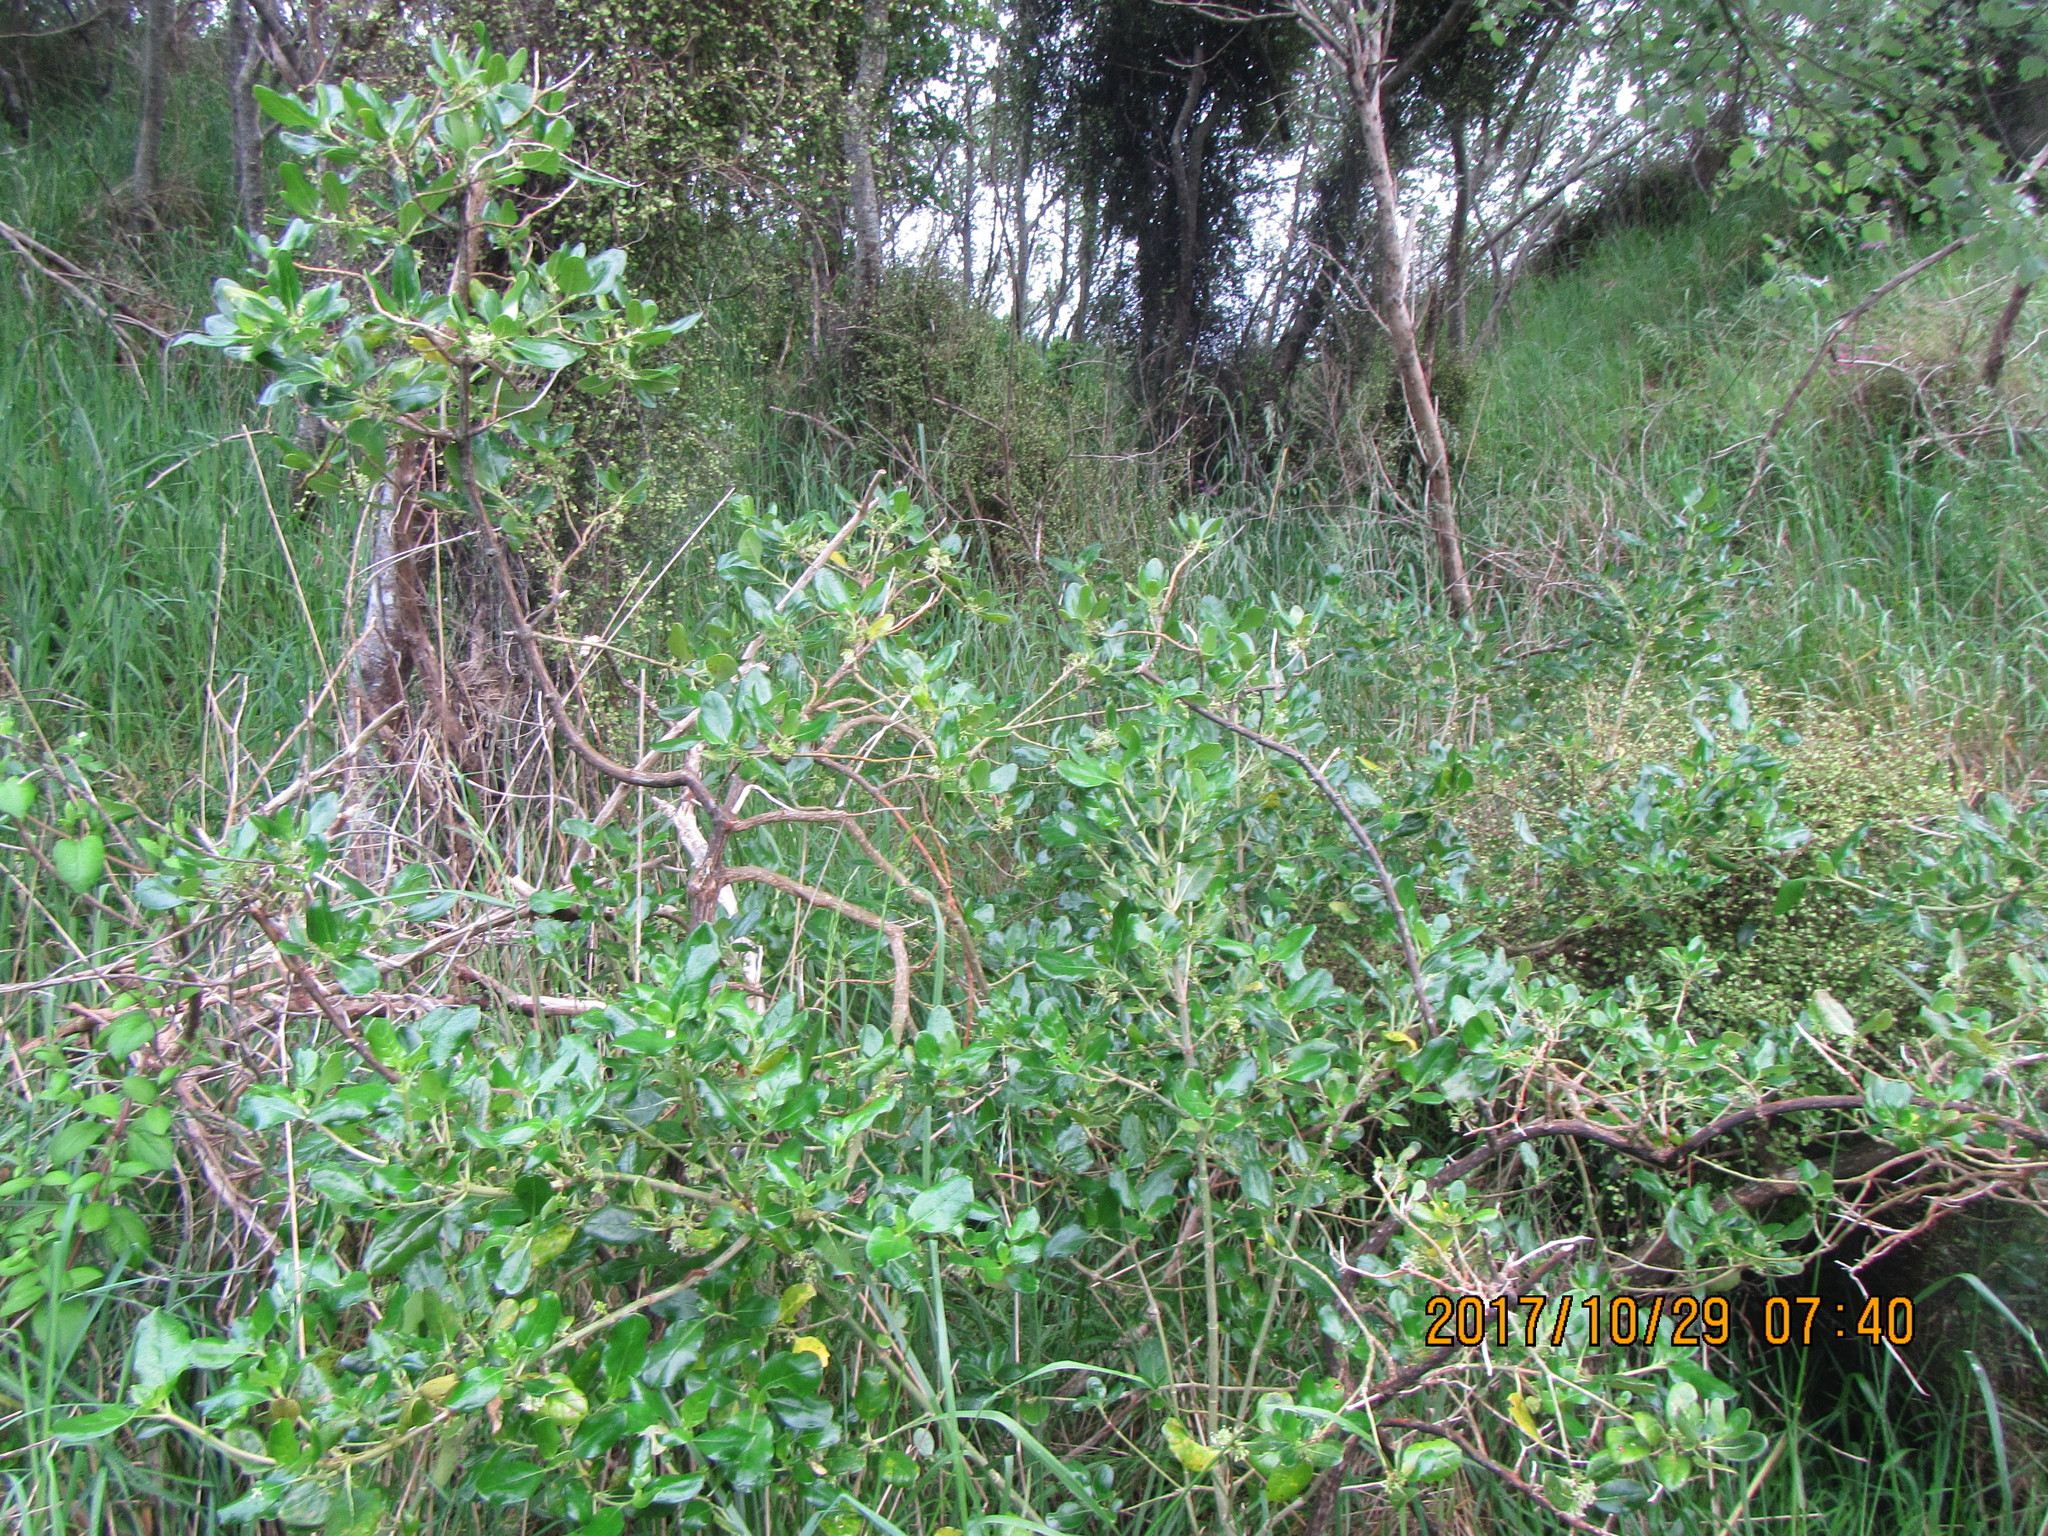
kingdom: Plantae
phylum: Tracheophyta
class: Magnoliopsida
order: Gentianales
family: Rubiaceae
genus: Coprosma
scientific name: Coprosma repens
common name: Tree bedstraw
